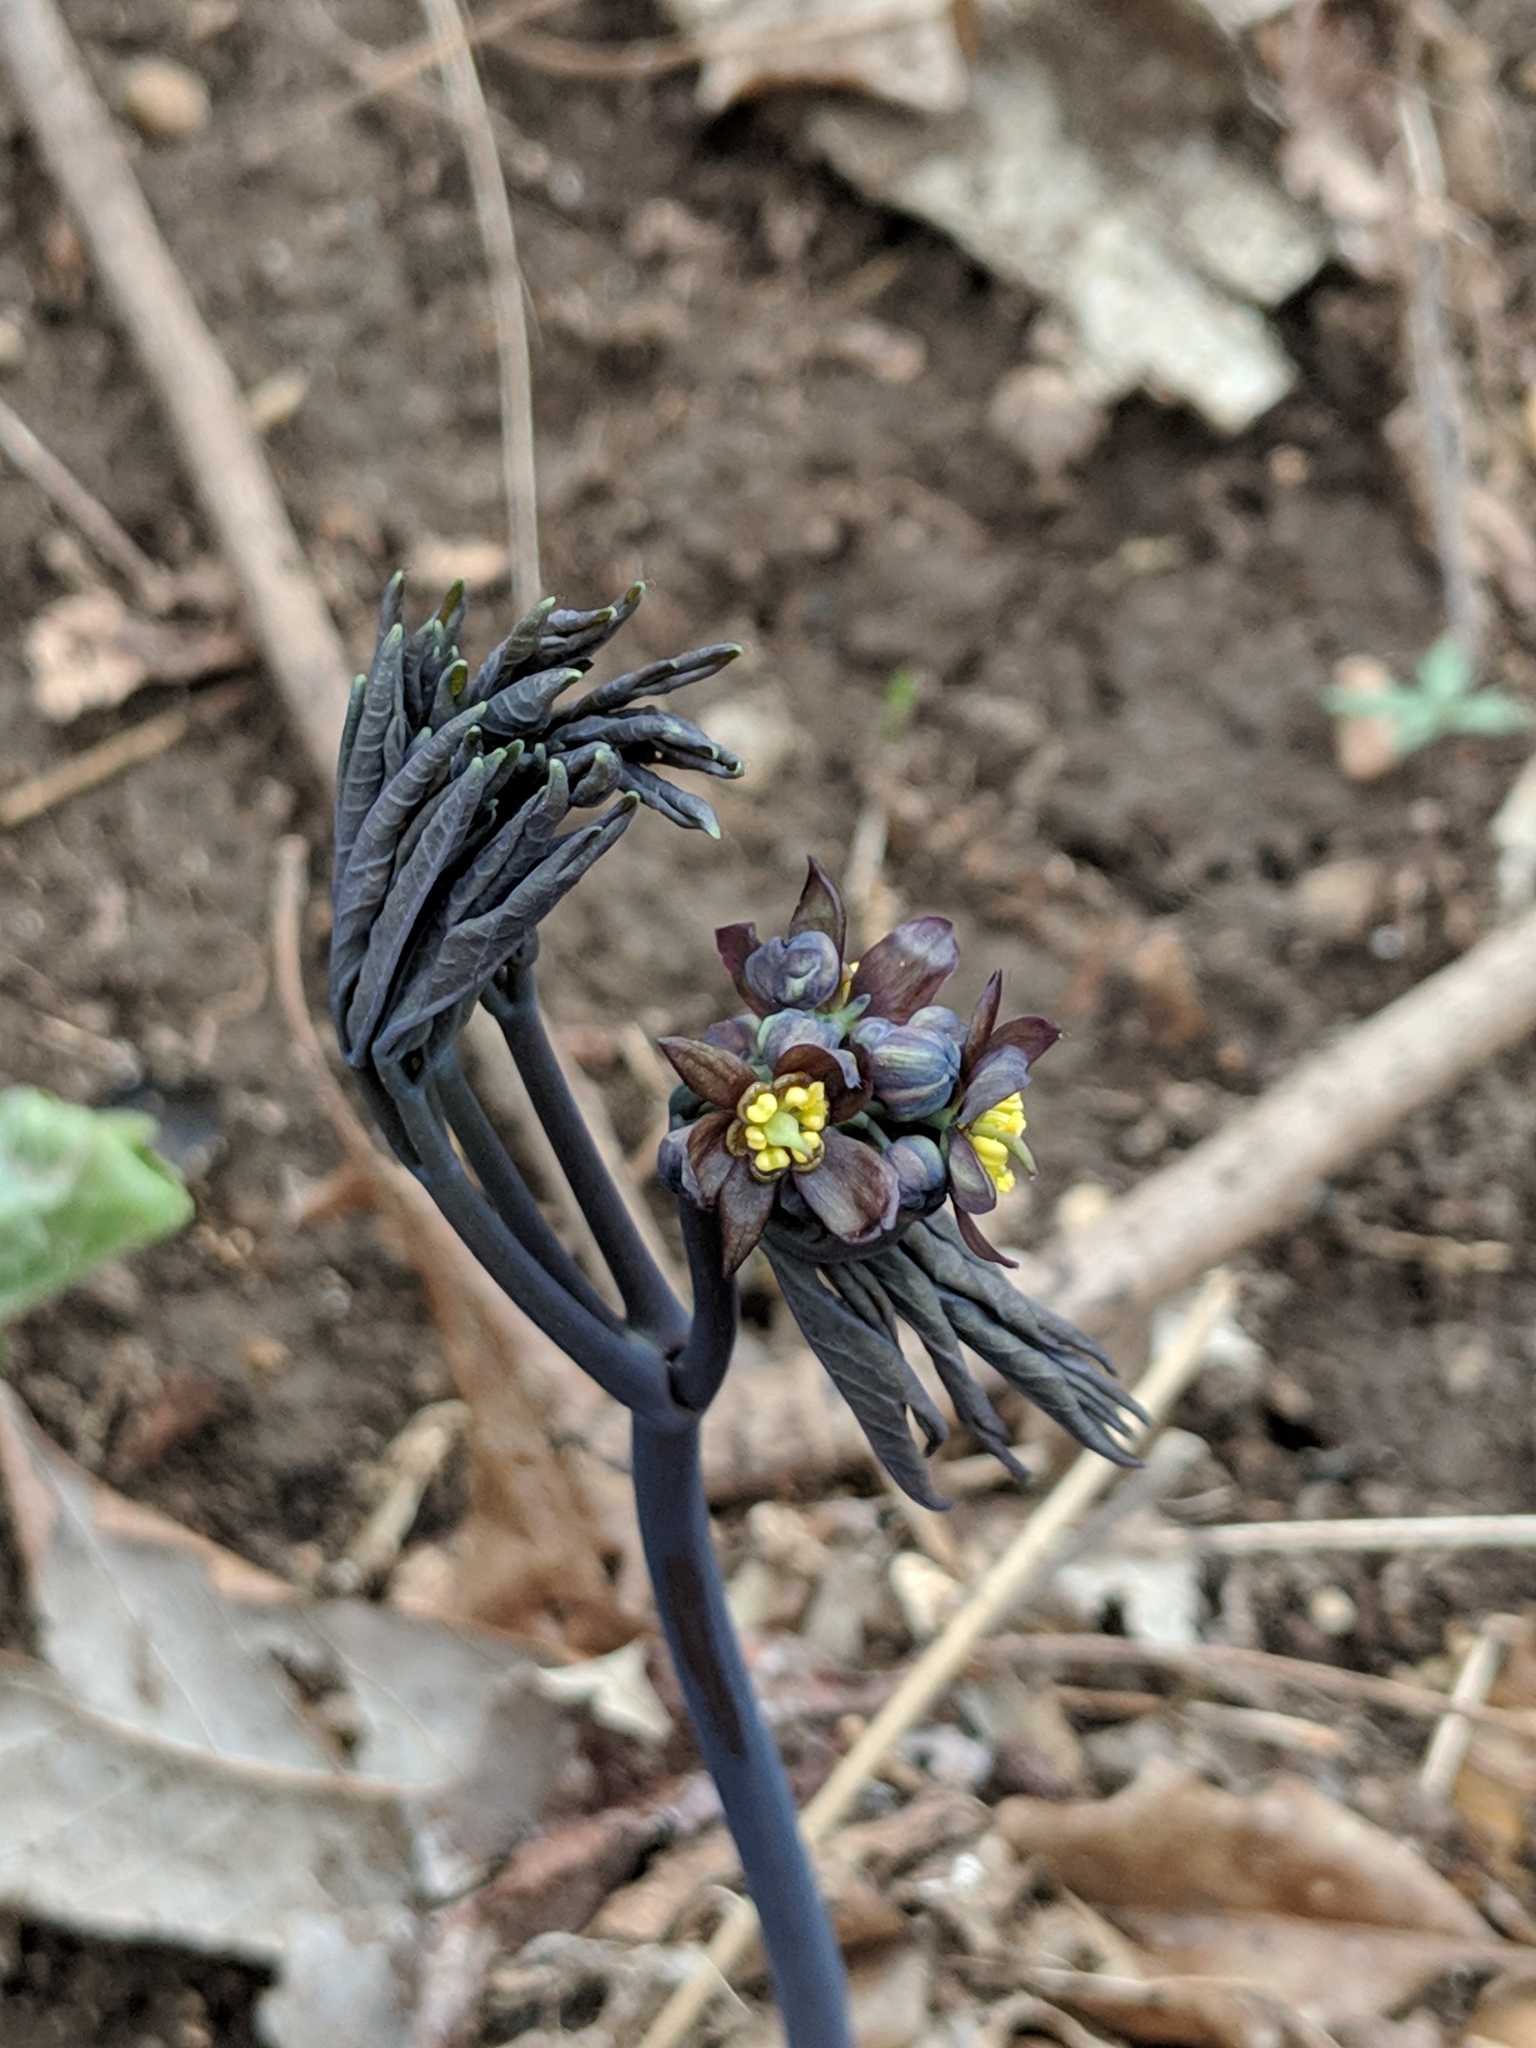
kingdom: Plantae
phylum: Tracheophyta
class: Magnoliopsida
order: Ranunculales
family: Berberidaceae
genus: Caulophyllum
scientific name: Caulophyllum thalictroides
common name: Blue cohosh
